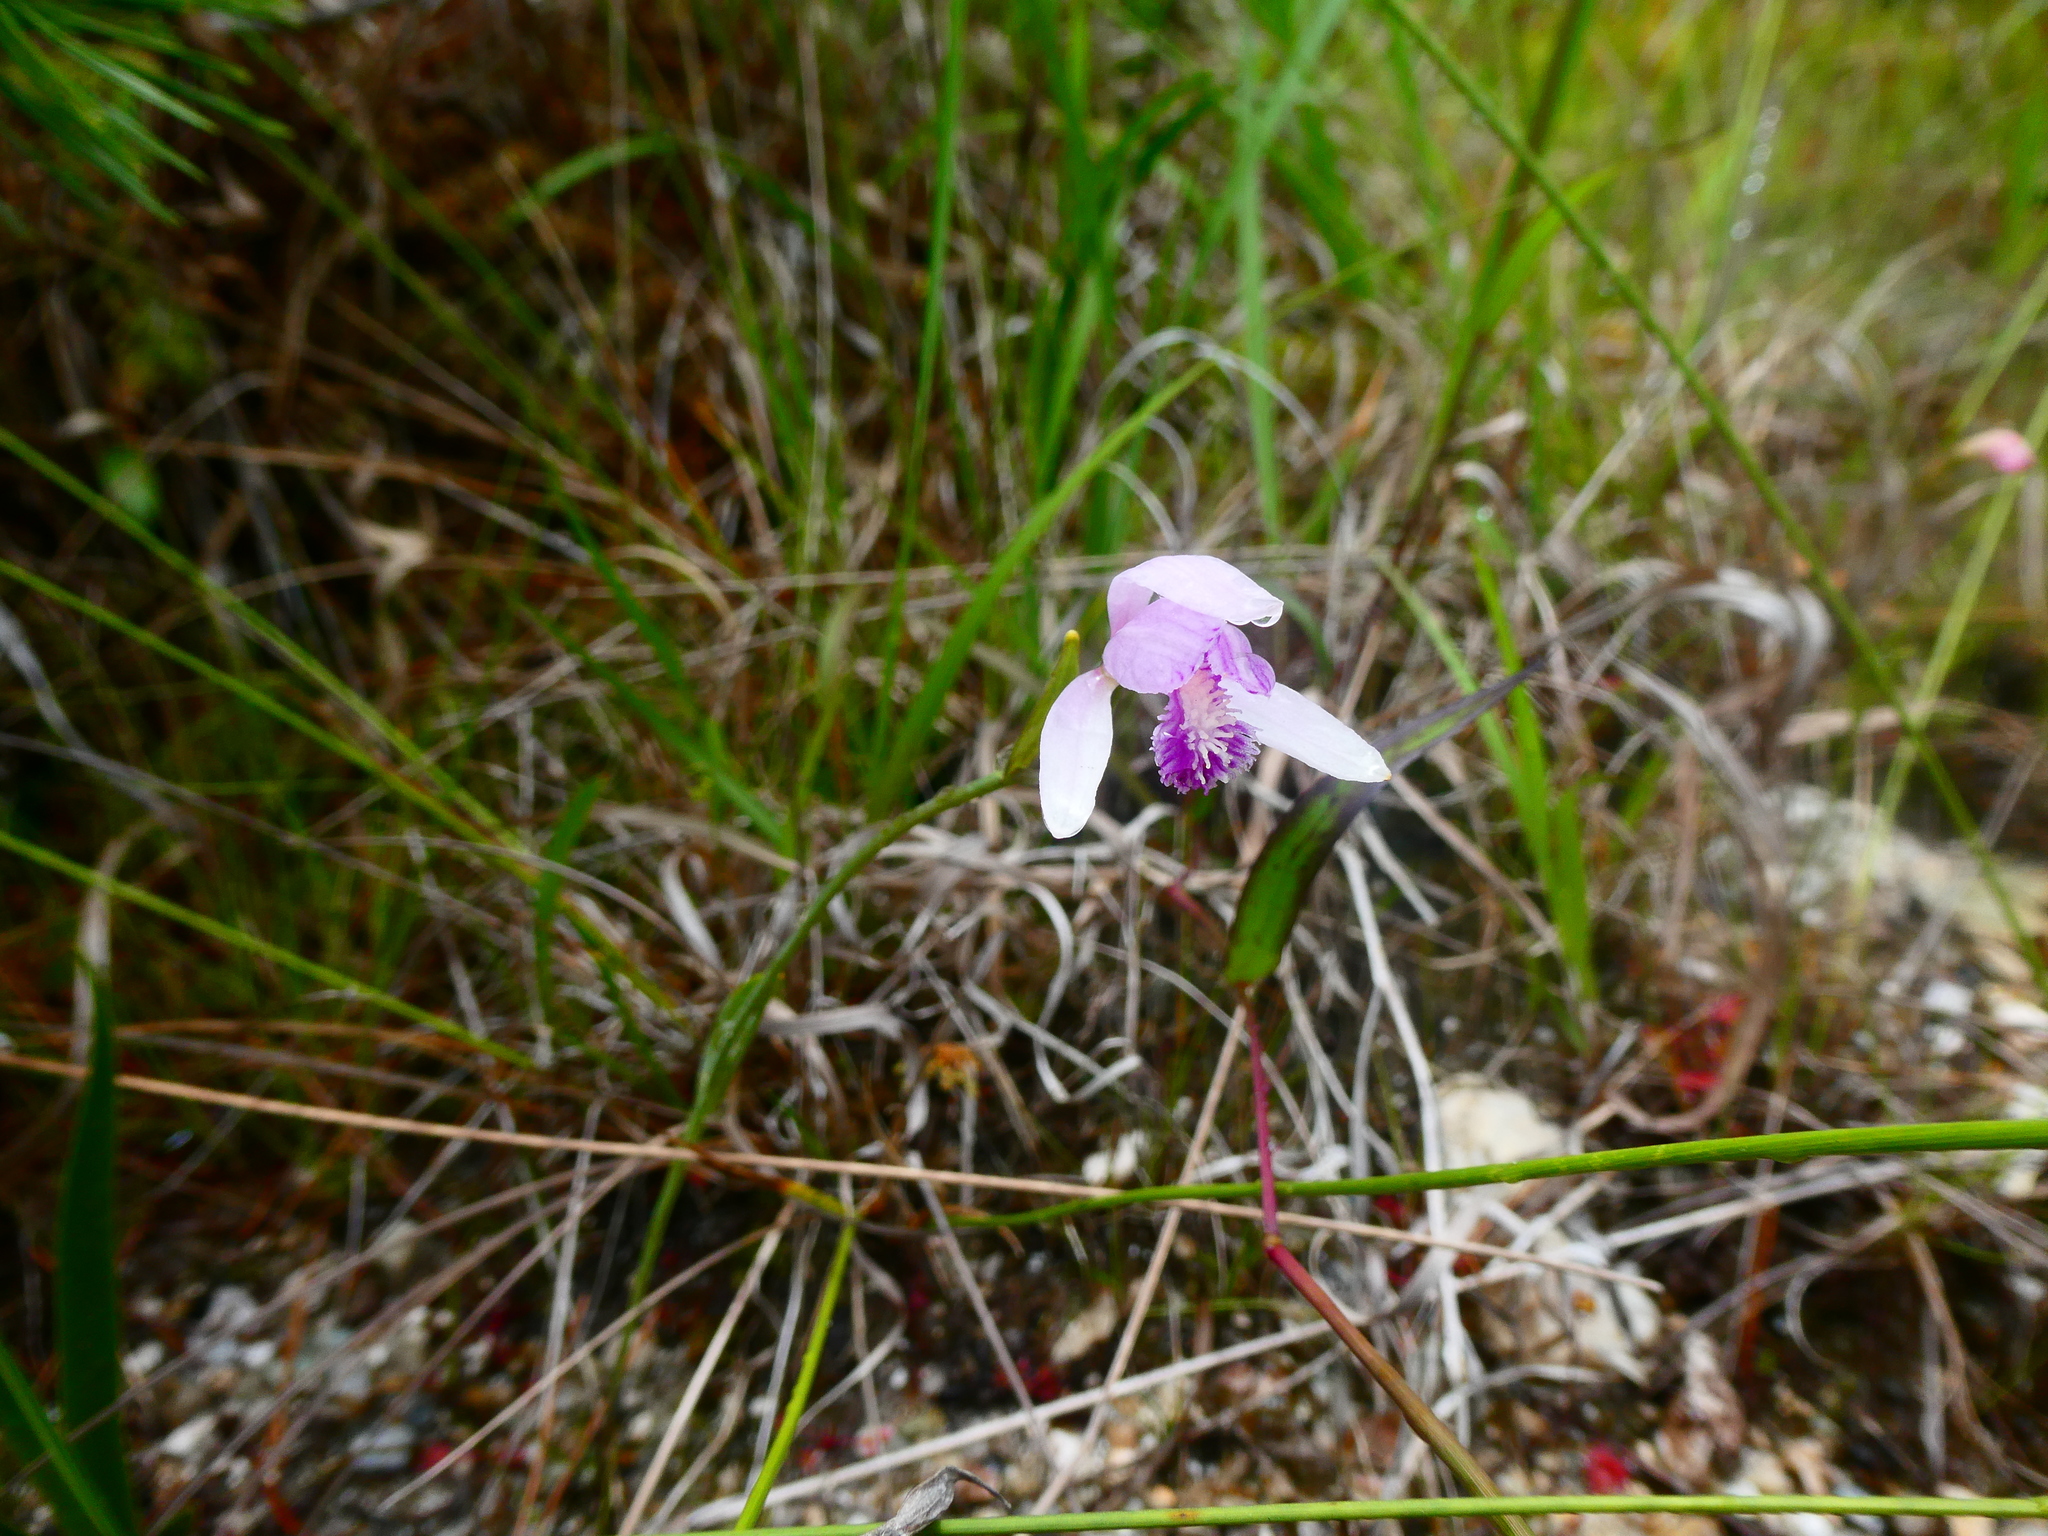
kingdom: Plantae
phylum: Tracheophyta
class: Liliopsida
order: Asparagales
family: Orchidaceae
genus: Pogonia
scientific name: Pogonia japonica
